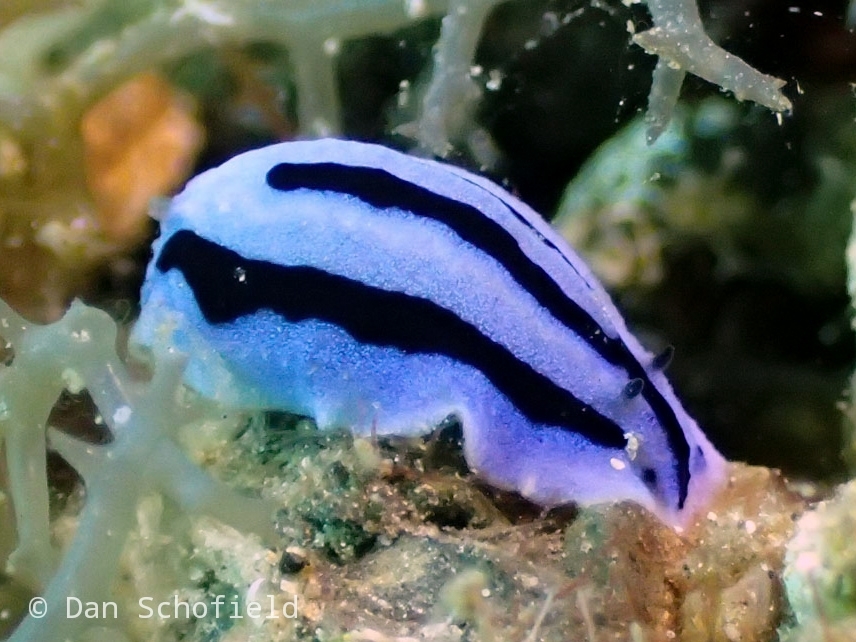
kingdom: Animalia
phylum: Mollusca
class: Gastropoda
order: Nudibranchia
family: Phyllidiidae
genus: Phyllidiopsis
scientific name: Phyllidiopsis annae
